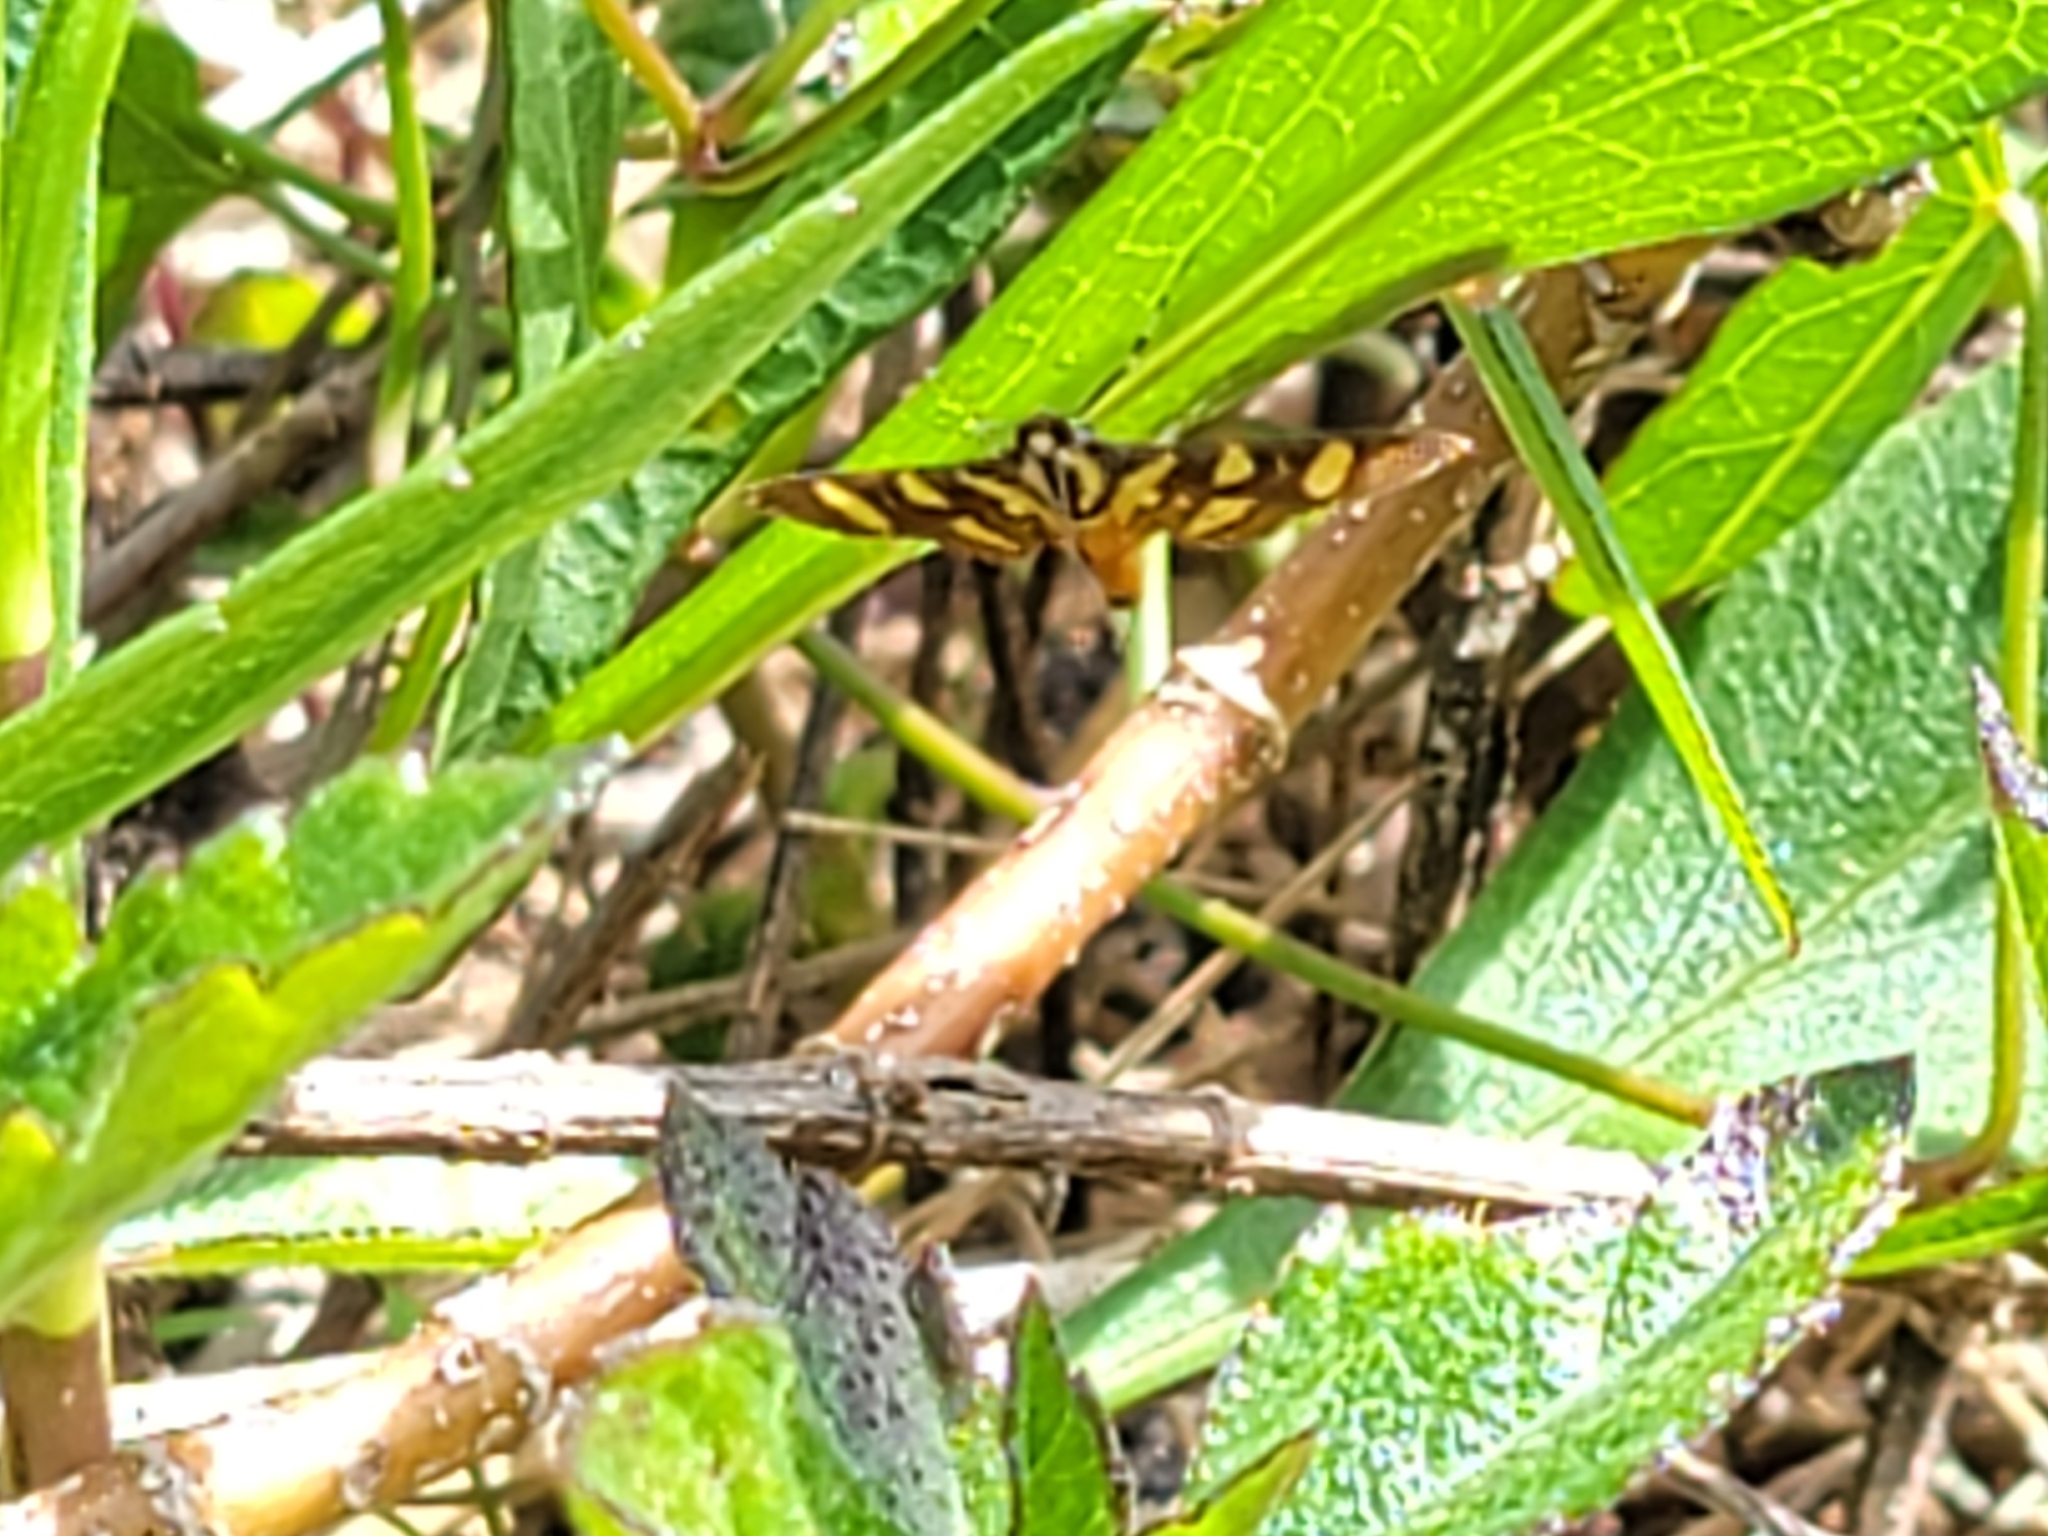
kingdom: Animalia
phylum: Arthropoda
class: Insecta
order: Lepidoptera
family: Crambidae
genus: Syngamia
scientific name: Syngamia florella
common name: Orange-spotted flower moth
